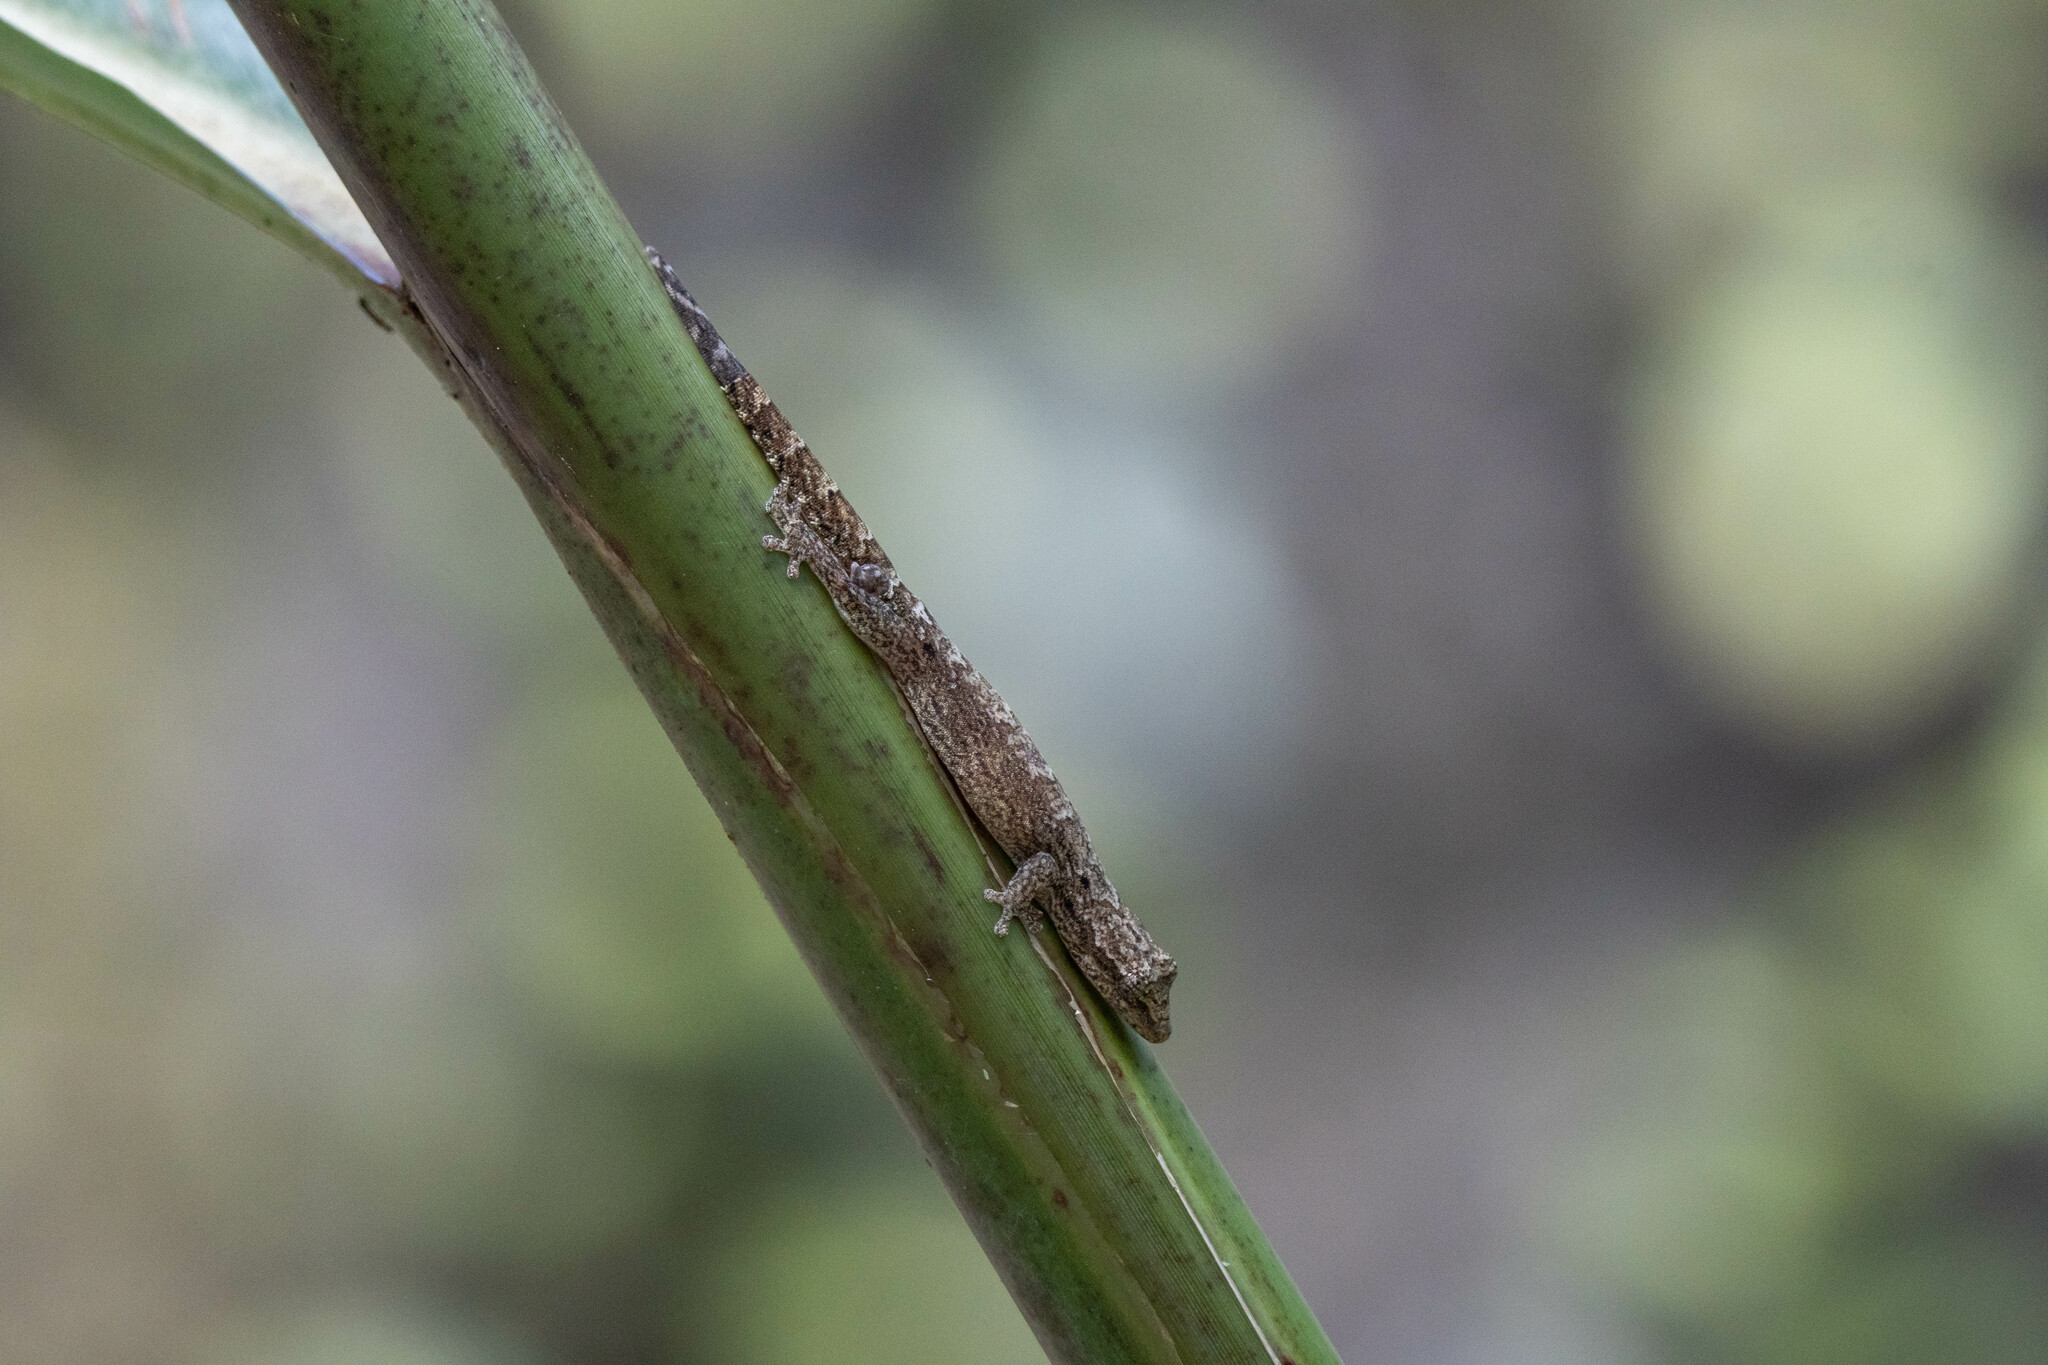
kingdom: Animalia
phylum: Chordata
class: Squamata
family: Gekkonidae
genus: Lepidodactylus
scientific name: Lepidodactylus lugubris
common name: Mourning gecko
